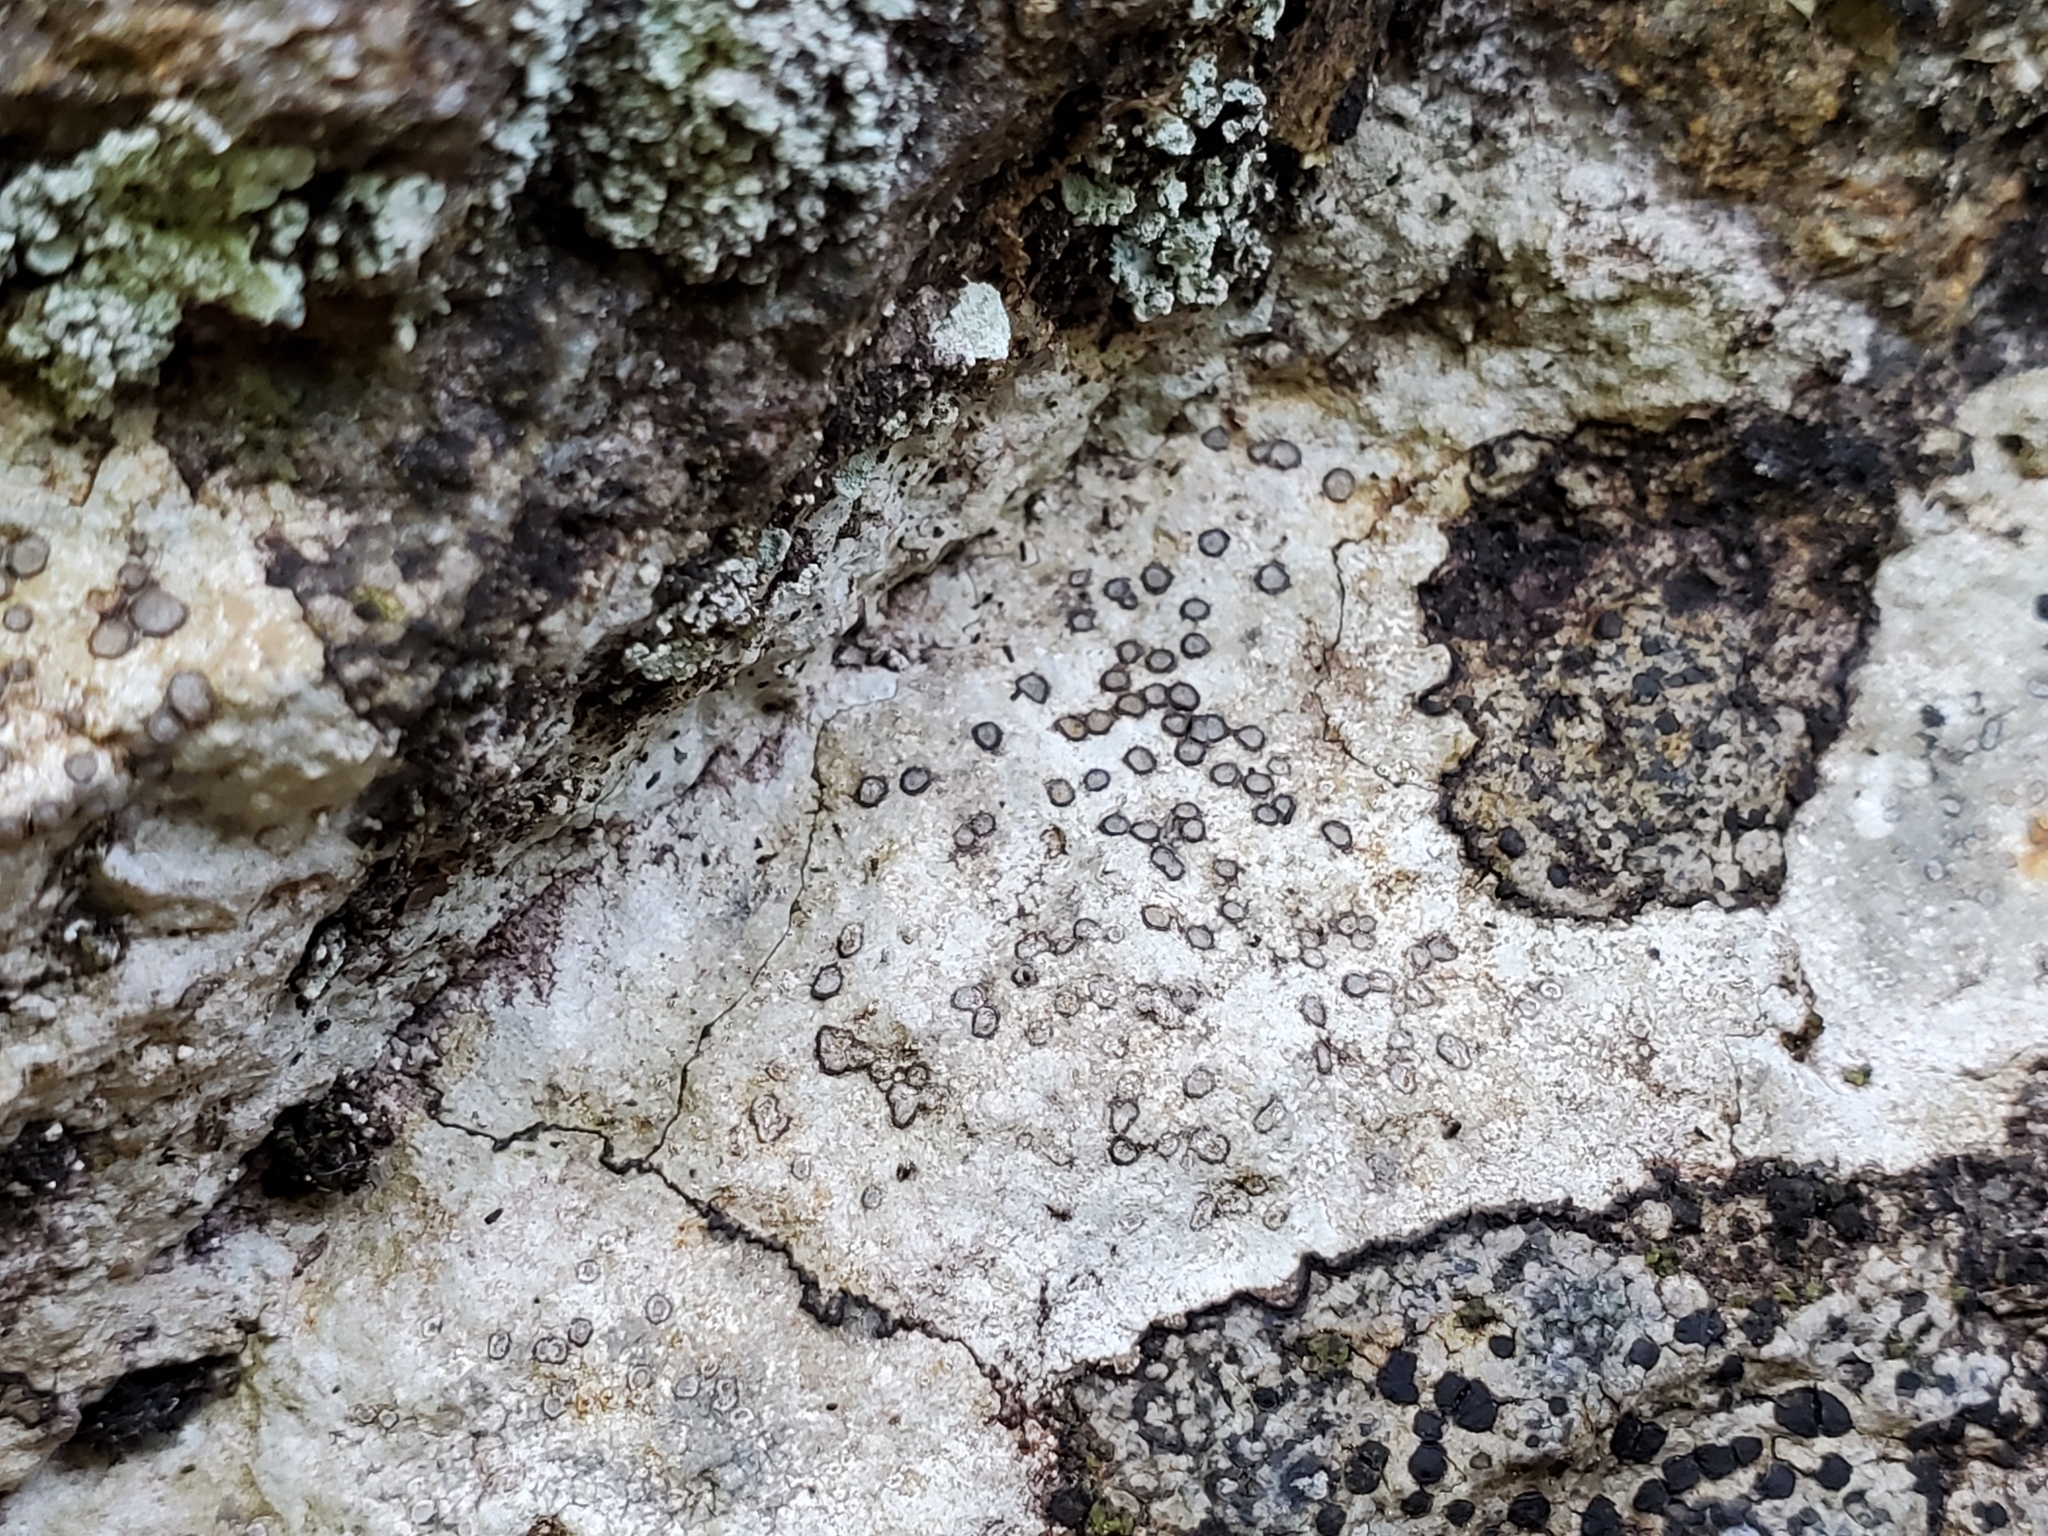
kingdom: Fungi
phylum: Ascomycota
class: Lecanoromycetes
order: Lecideales
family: Lecideaceae
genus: Porpidia
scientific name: Porpidia albocaerulescens
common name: Smokey-eyed boulder lichen
